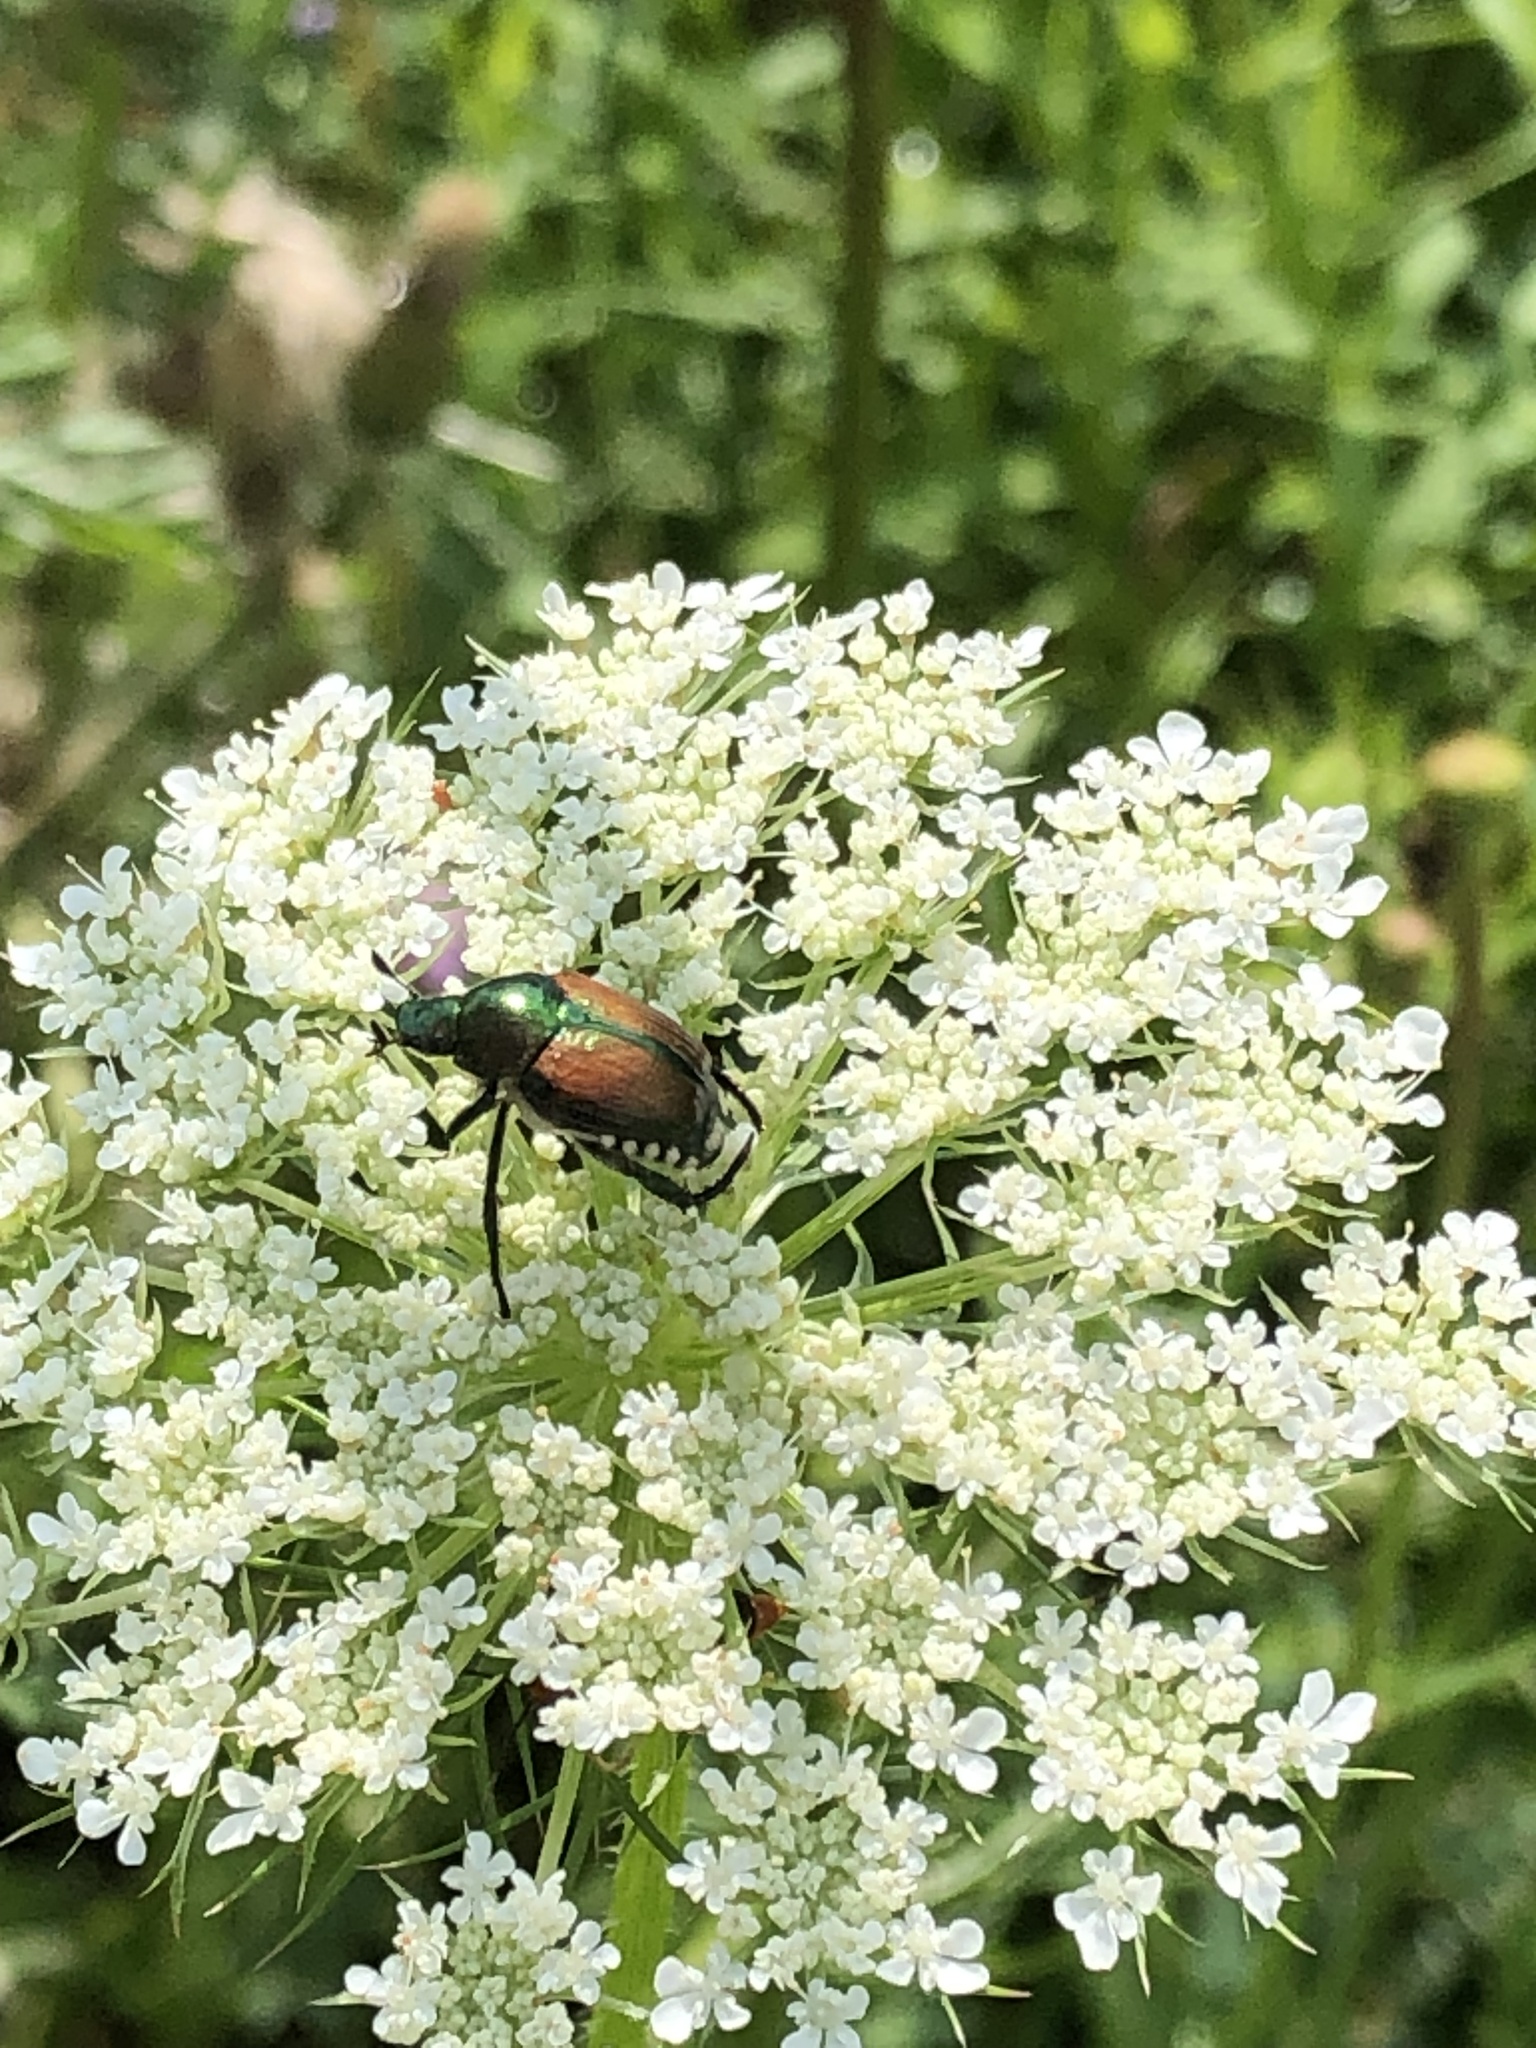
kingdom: Animalia
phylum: Arthropoda
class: Insecta
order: Coleoptera
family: Scarabaeidae
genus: Popillia
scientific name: Popillia japonica
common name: Japanese beetle
